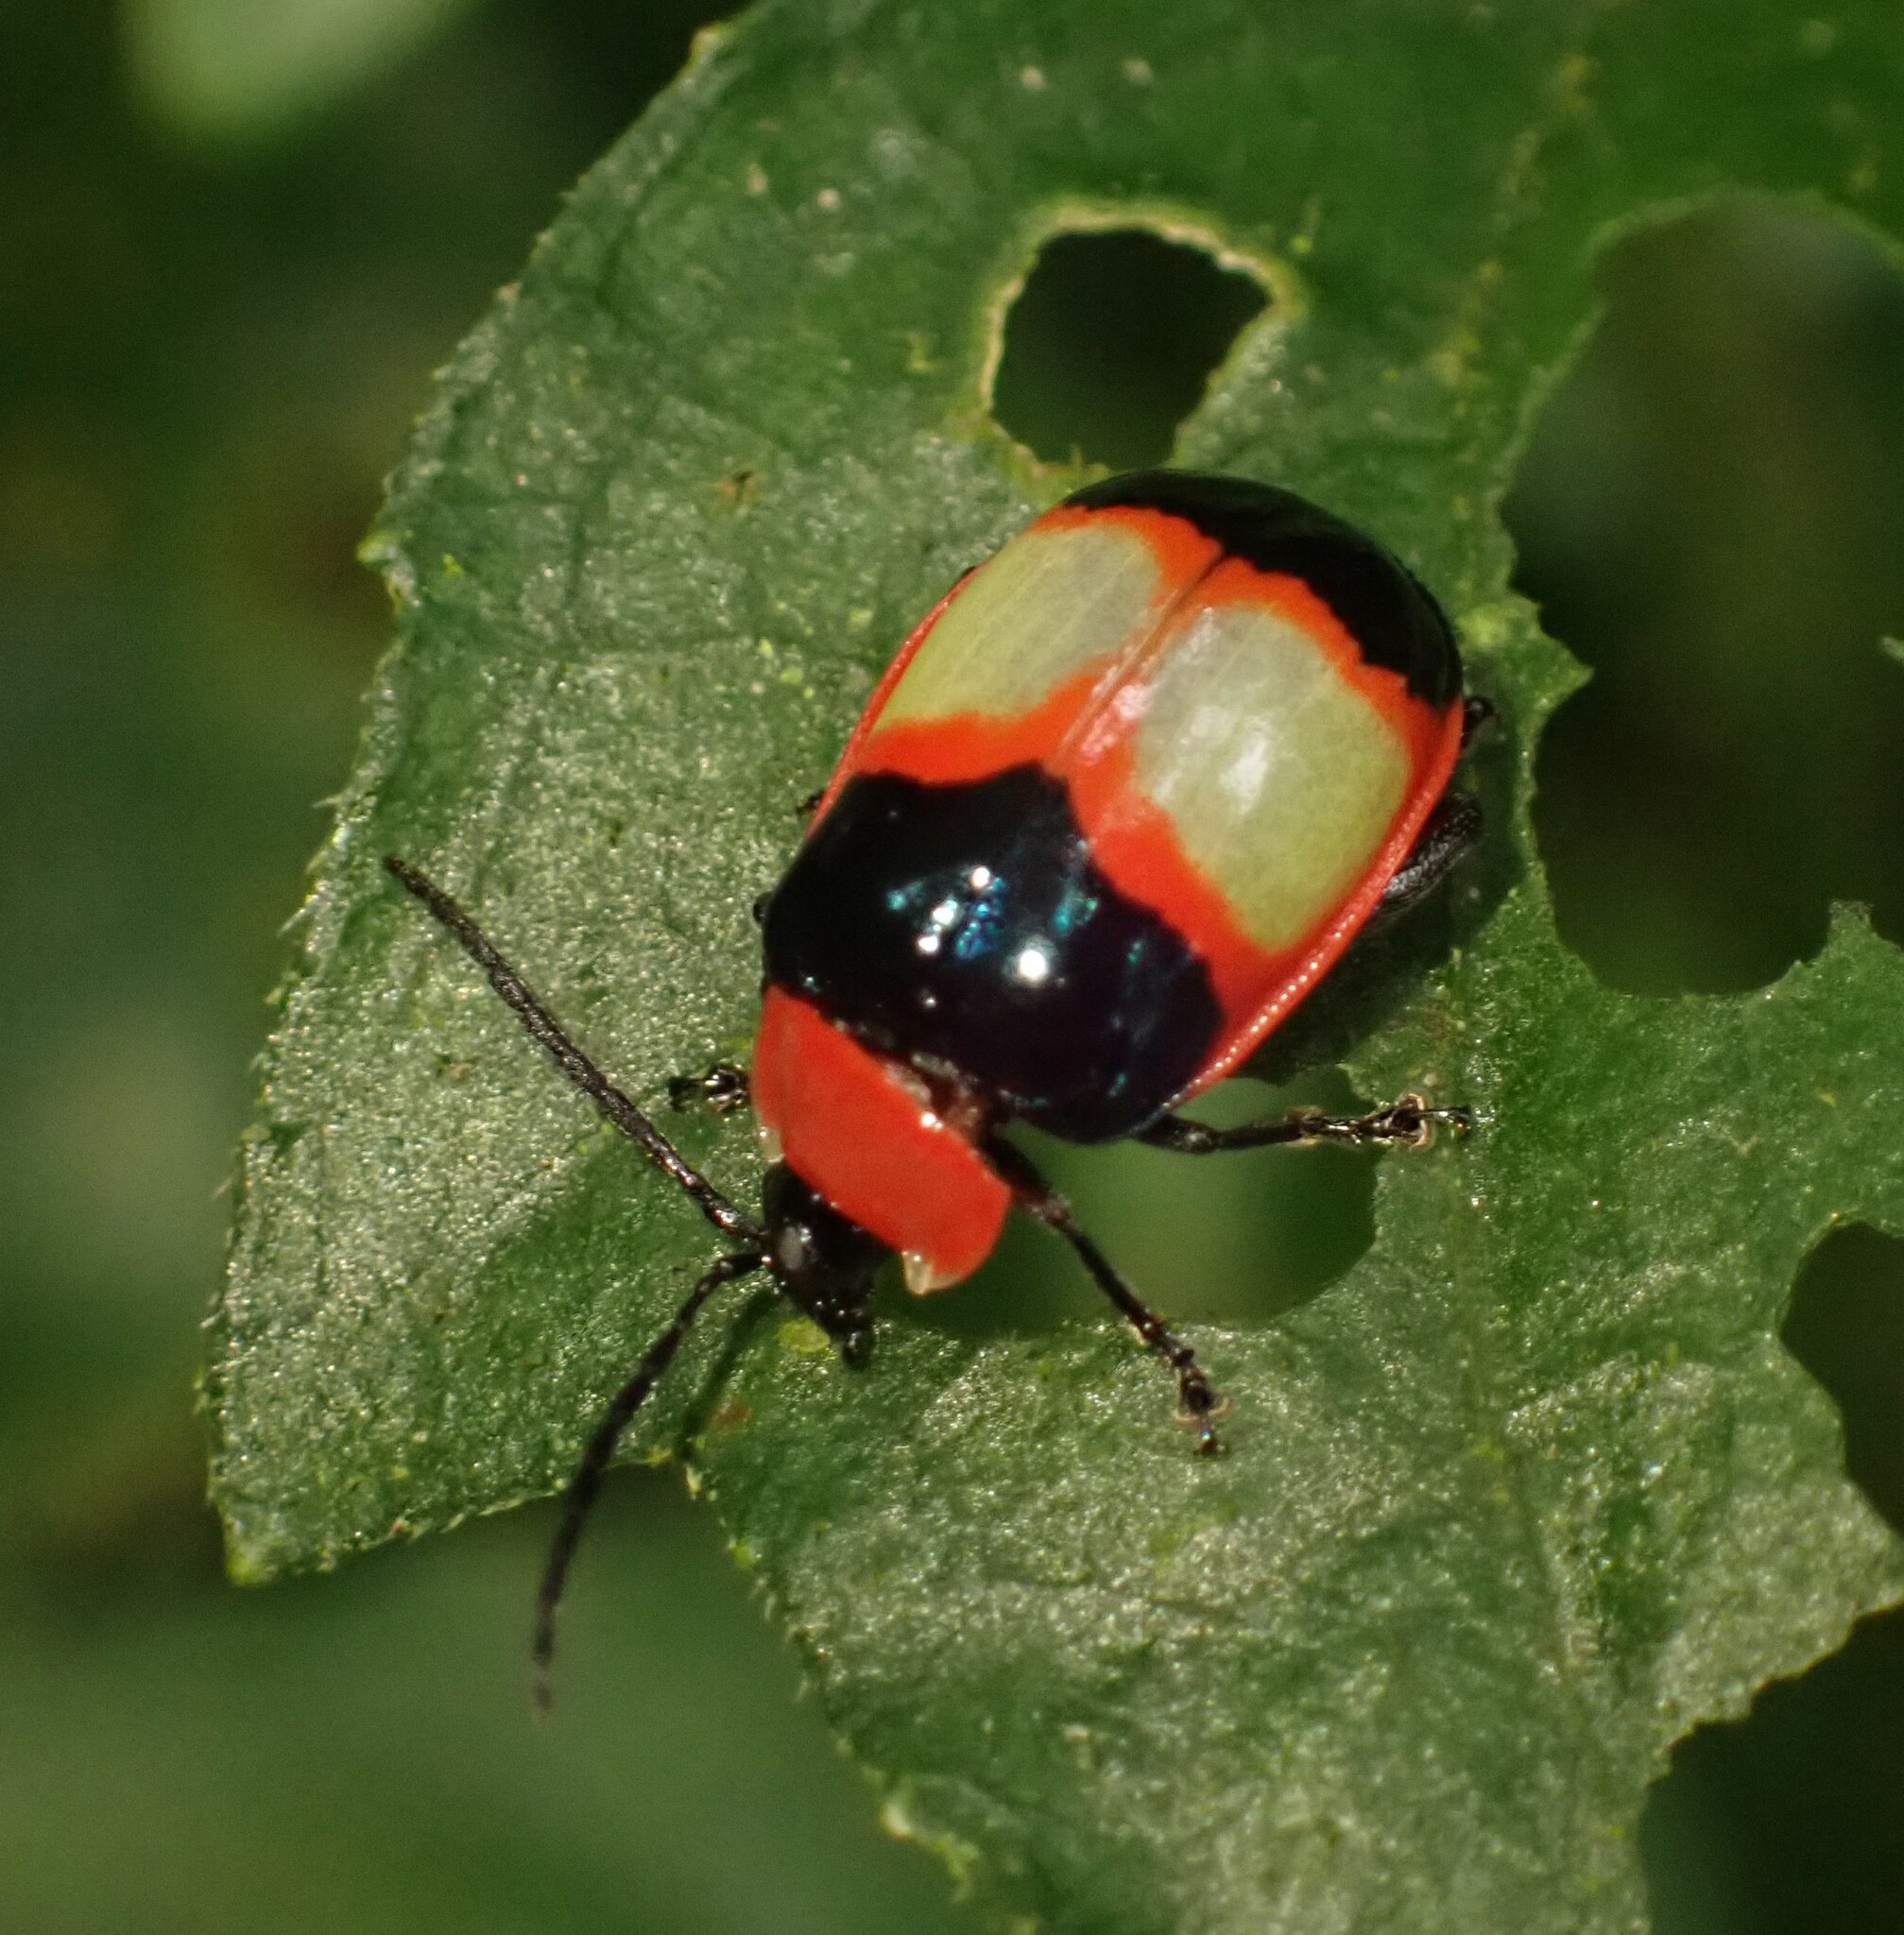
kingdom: Animalia
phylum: Arthropoda
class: Insecta
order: Coleoptera
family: Chrysomelidae
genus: Alagoasa
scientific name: Alagoasa
